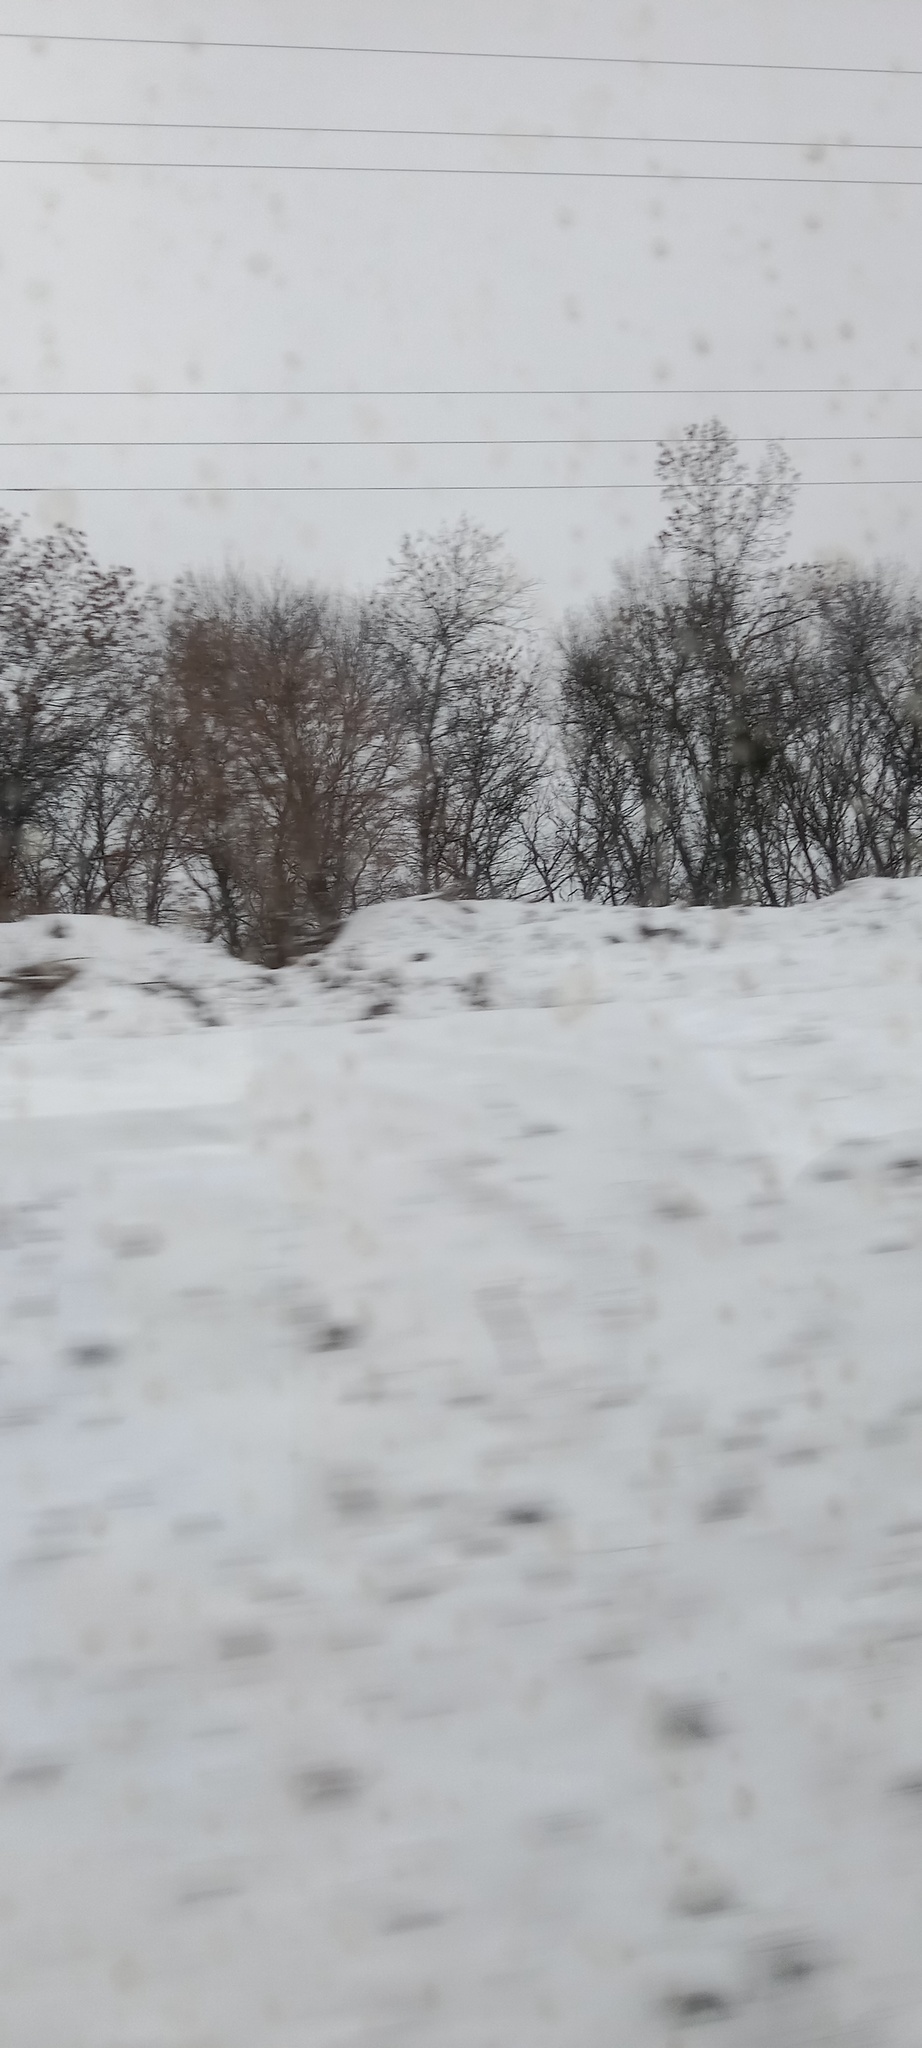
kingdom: Plantae
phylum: Tracheophyta
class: Magnoliopsida
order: Santalales
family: Viscaceae
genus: Viscum
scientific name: Viscum album
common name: Mistletoe
